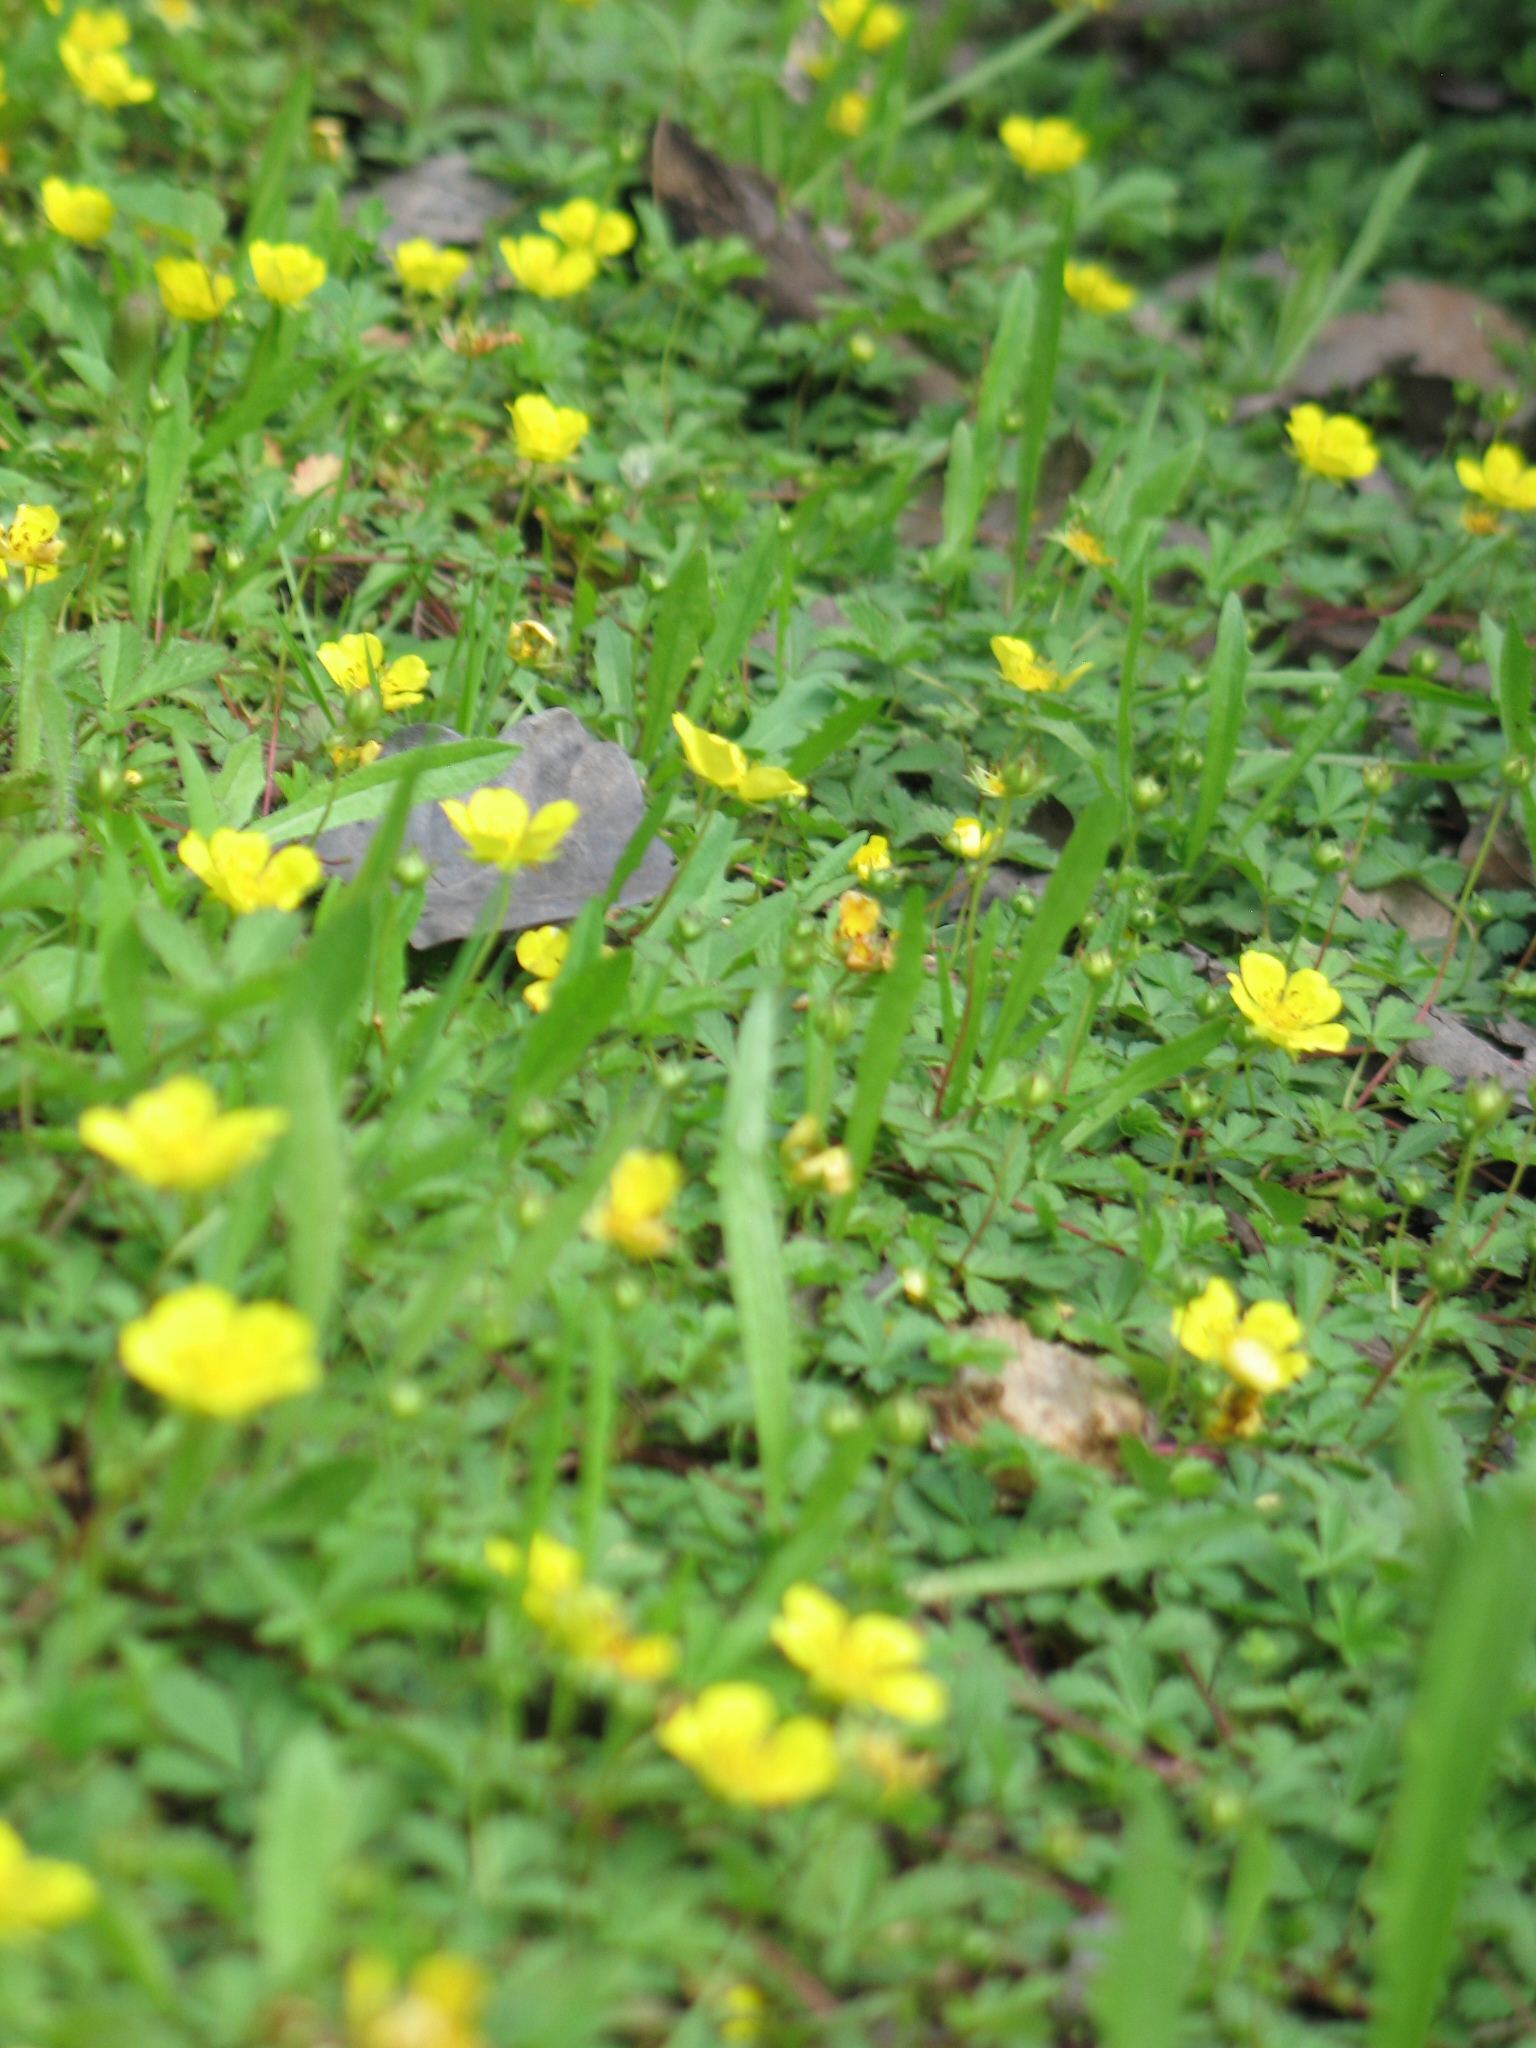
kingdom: Plantae
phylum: Tracheophyta
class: Magnoliopsida
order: Rosales
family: Rosaceae
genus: Potentilla
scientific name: Potentilla reptans
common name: Creeping cinquefoil
